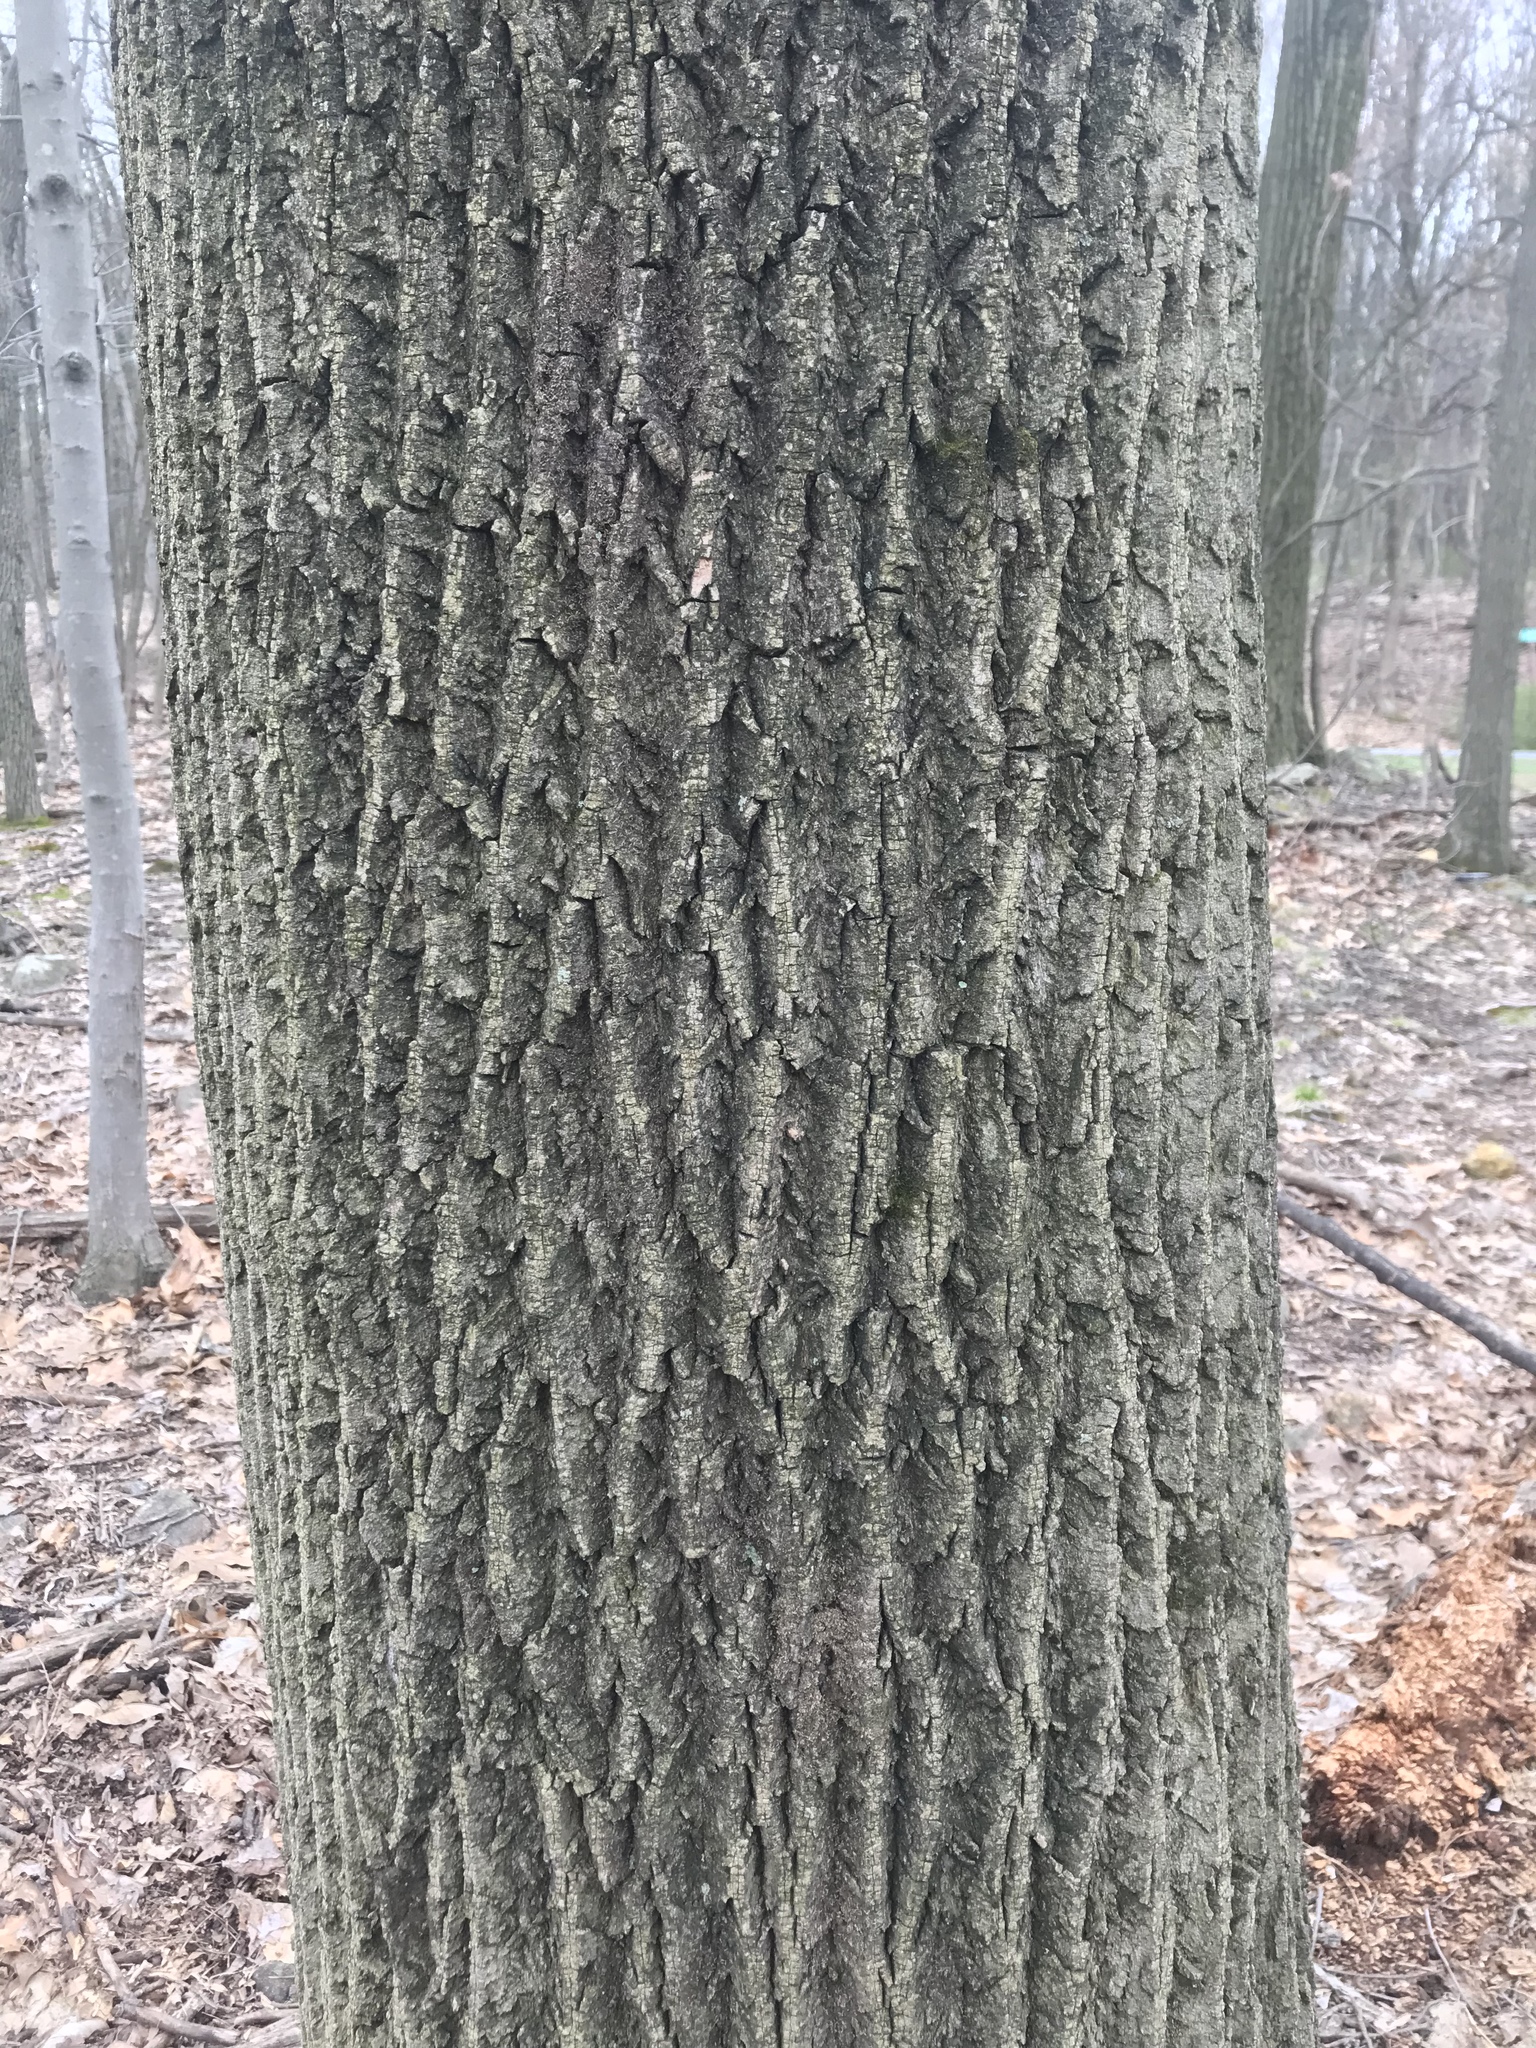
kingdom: Plantae
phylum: Tracheophyta
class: Magnoliopsida
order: Magnoliales
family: Magnoliaceae
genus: Liriodendron
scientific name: Liriodendron tulipifera
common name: Tulip tree
